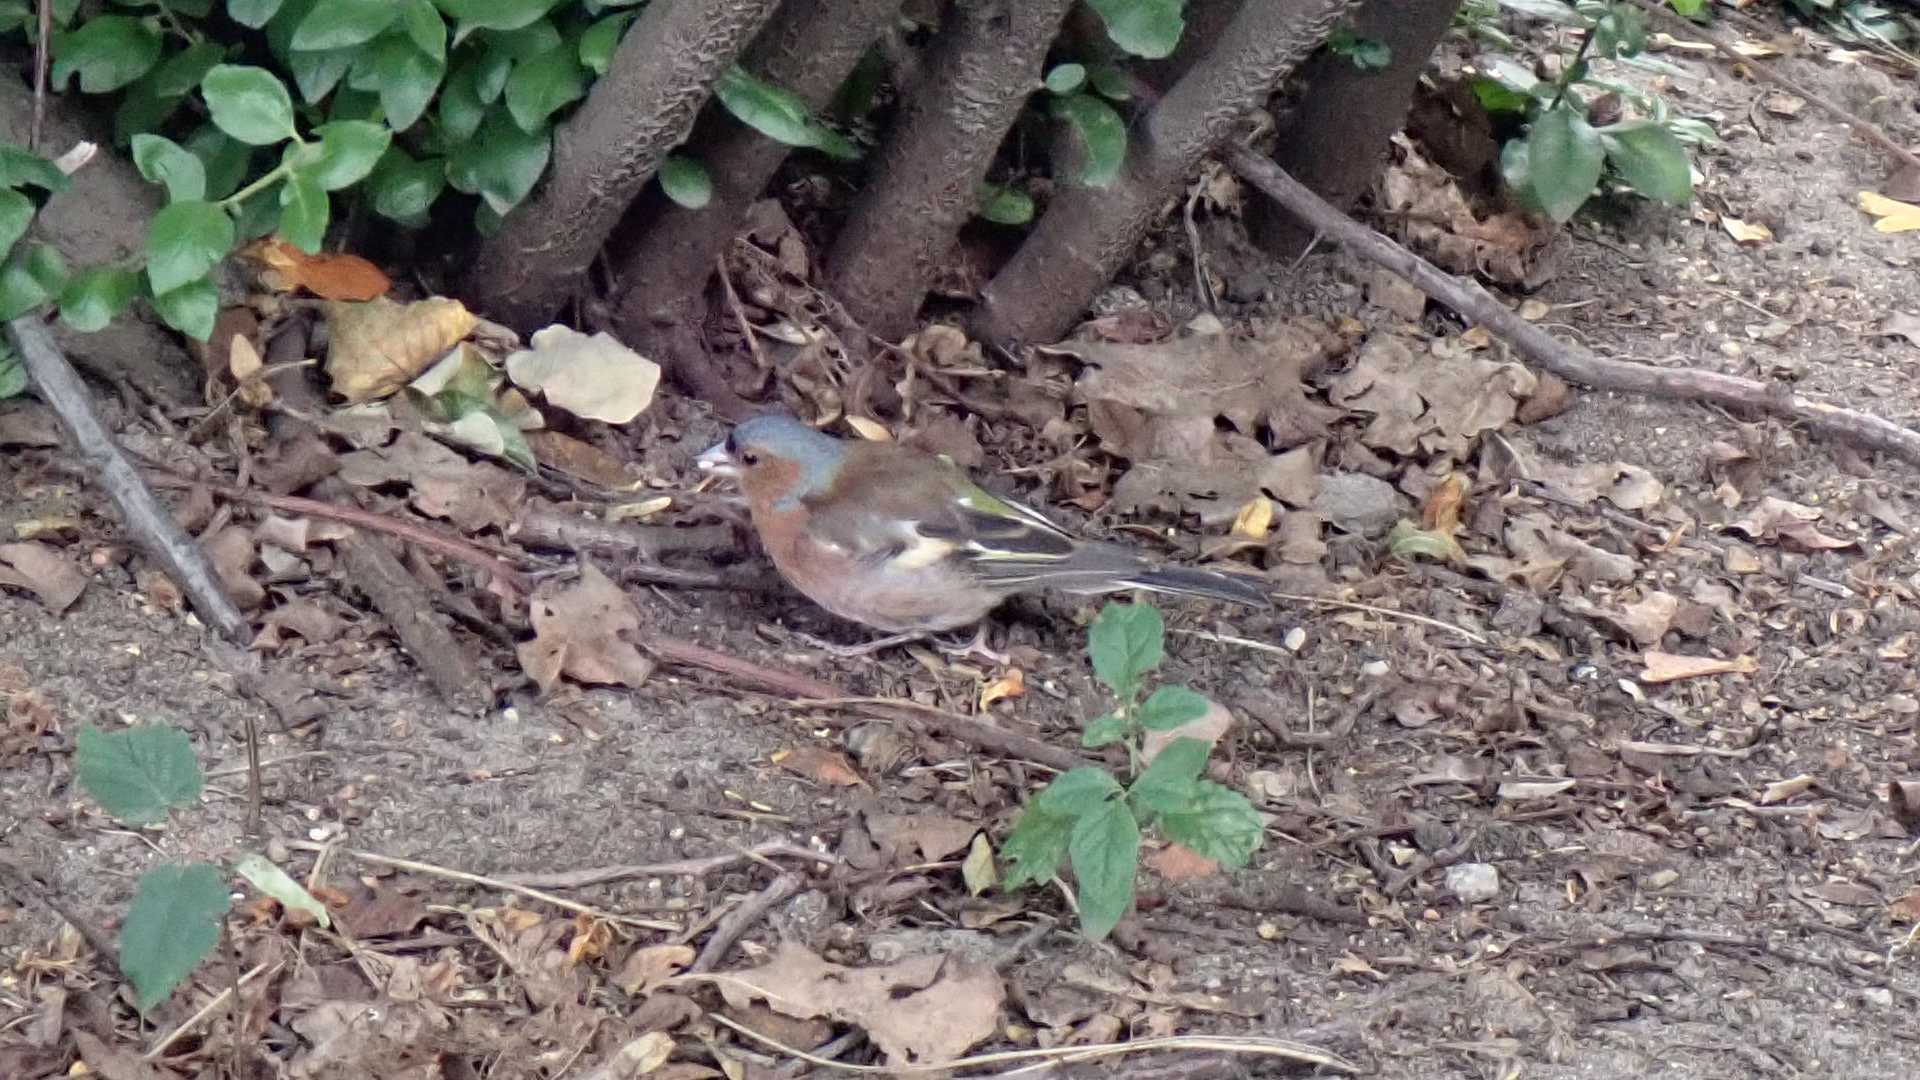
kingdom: Animalia
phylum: Chordata
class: Aves
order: Passeriformes
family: Fringillidae
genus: Fringilla
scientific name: Fringilla coelebs
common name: Common chaffinch
